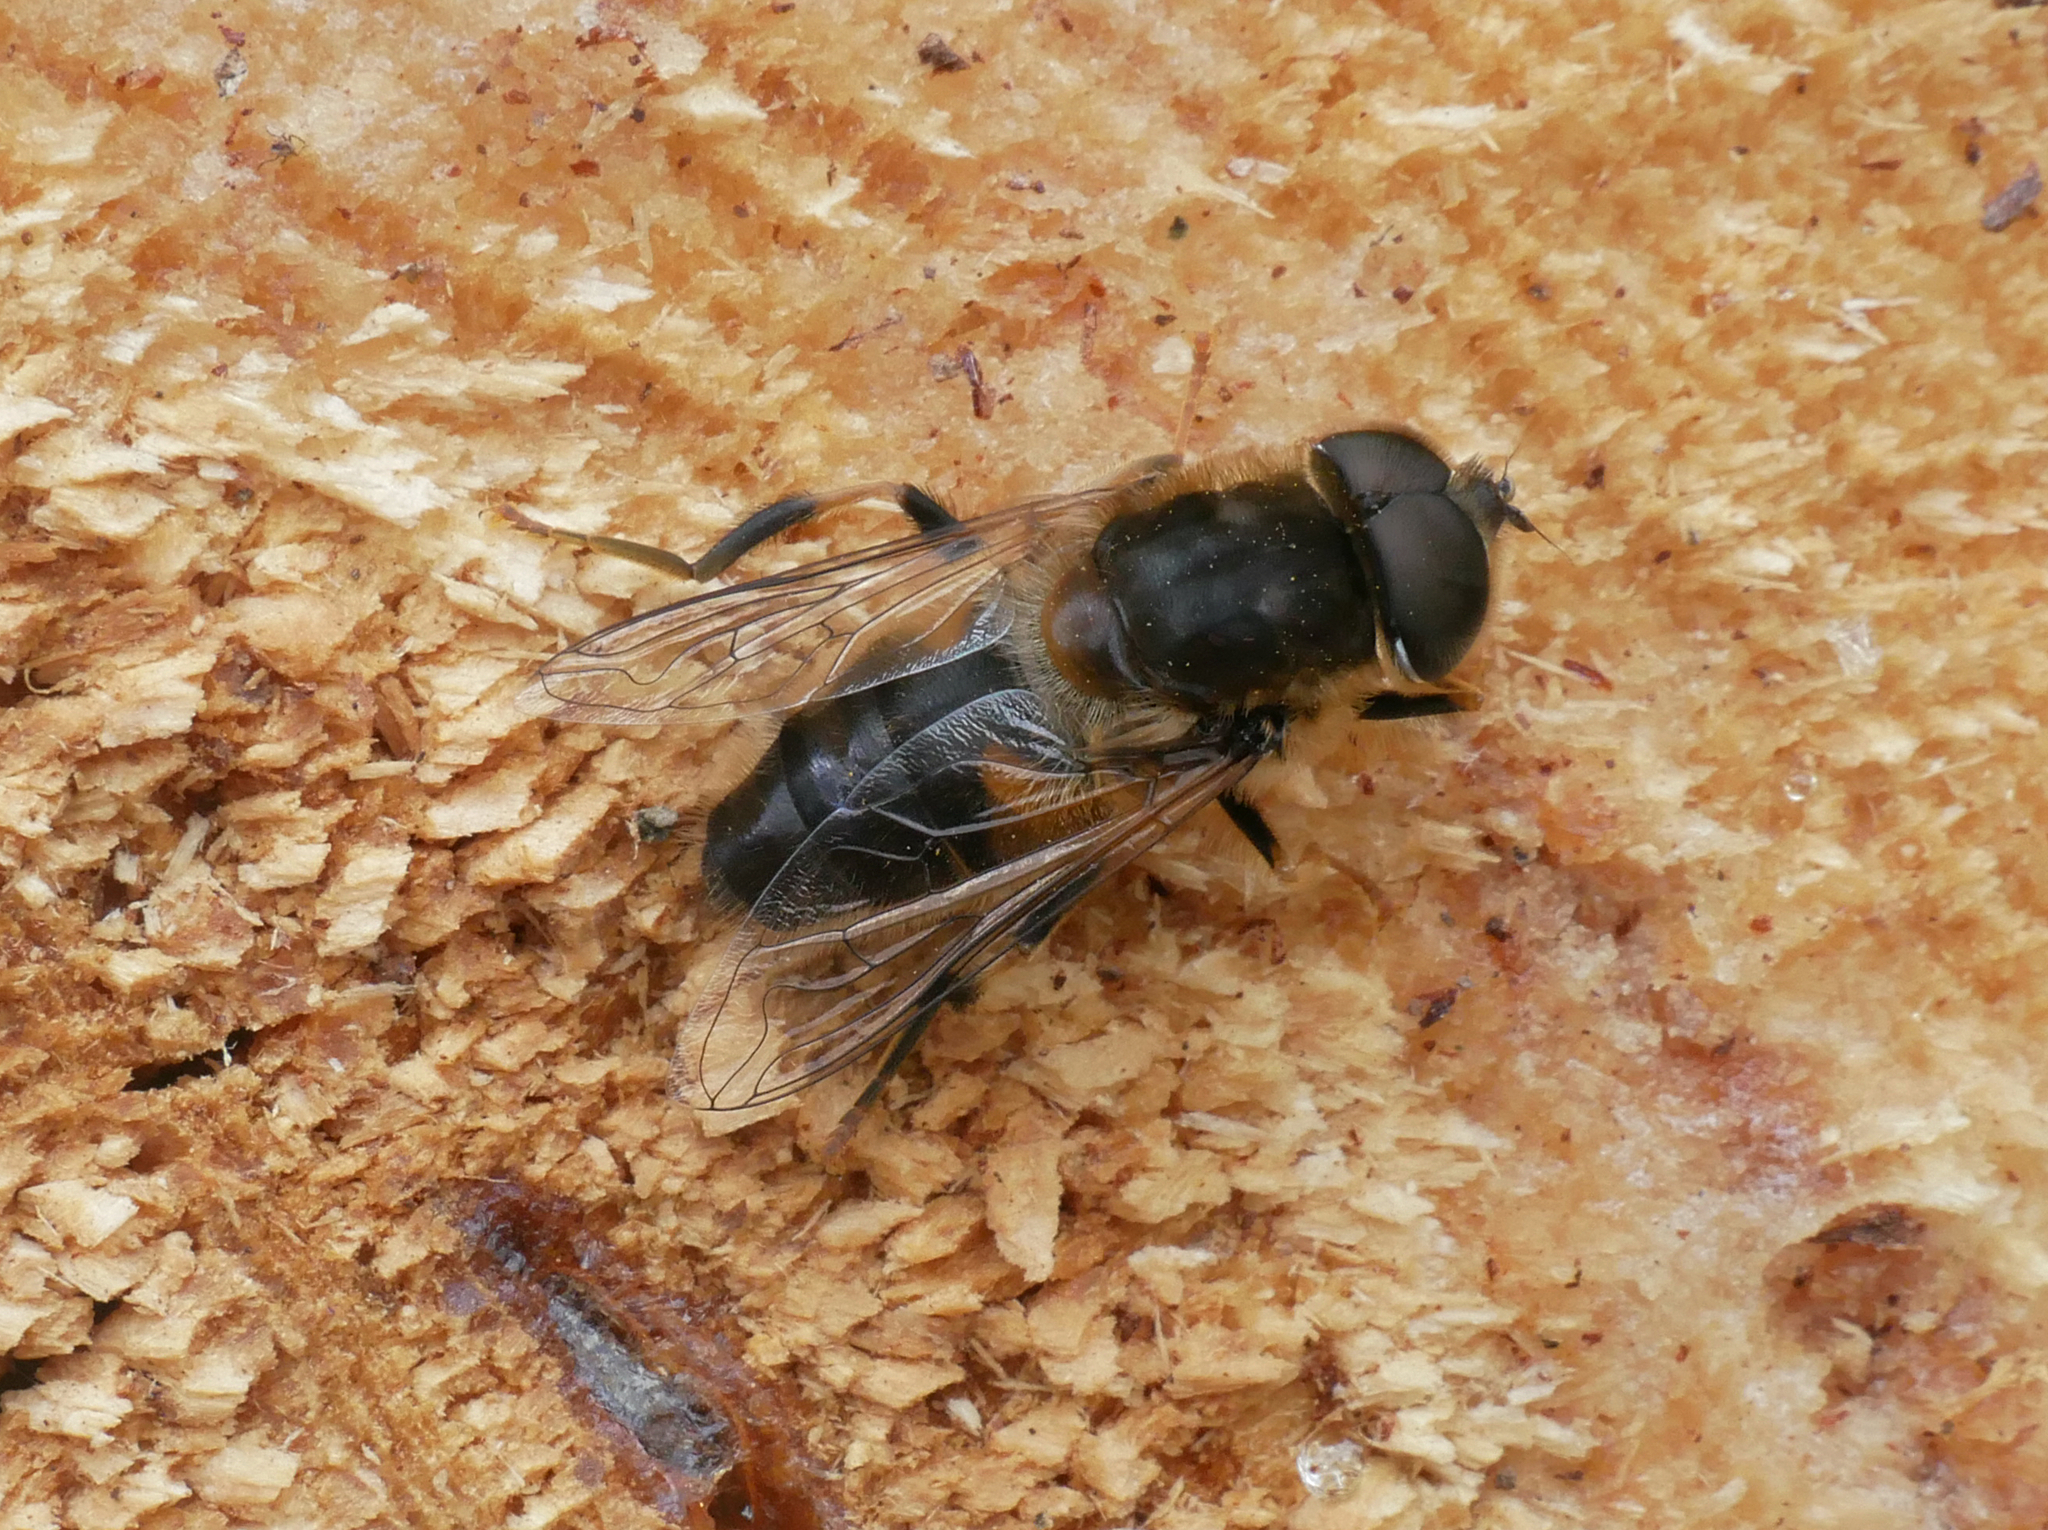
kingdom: Animalia
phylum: Arthropoda
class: Insecta
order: Diptera
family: Syrphidae
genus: Eristalis
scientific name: Eristalis pertinax
